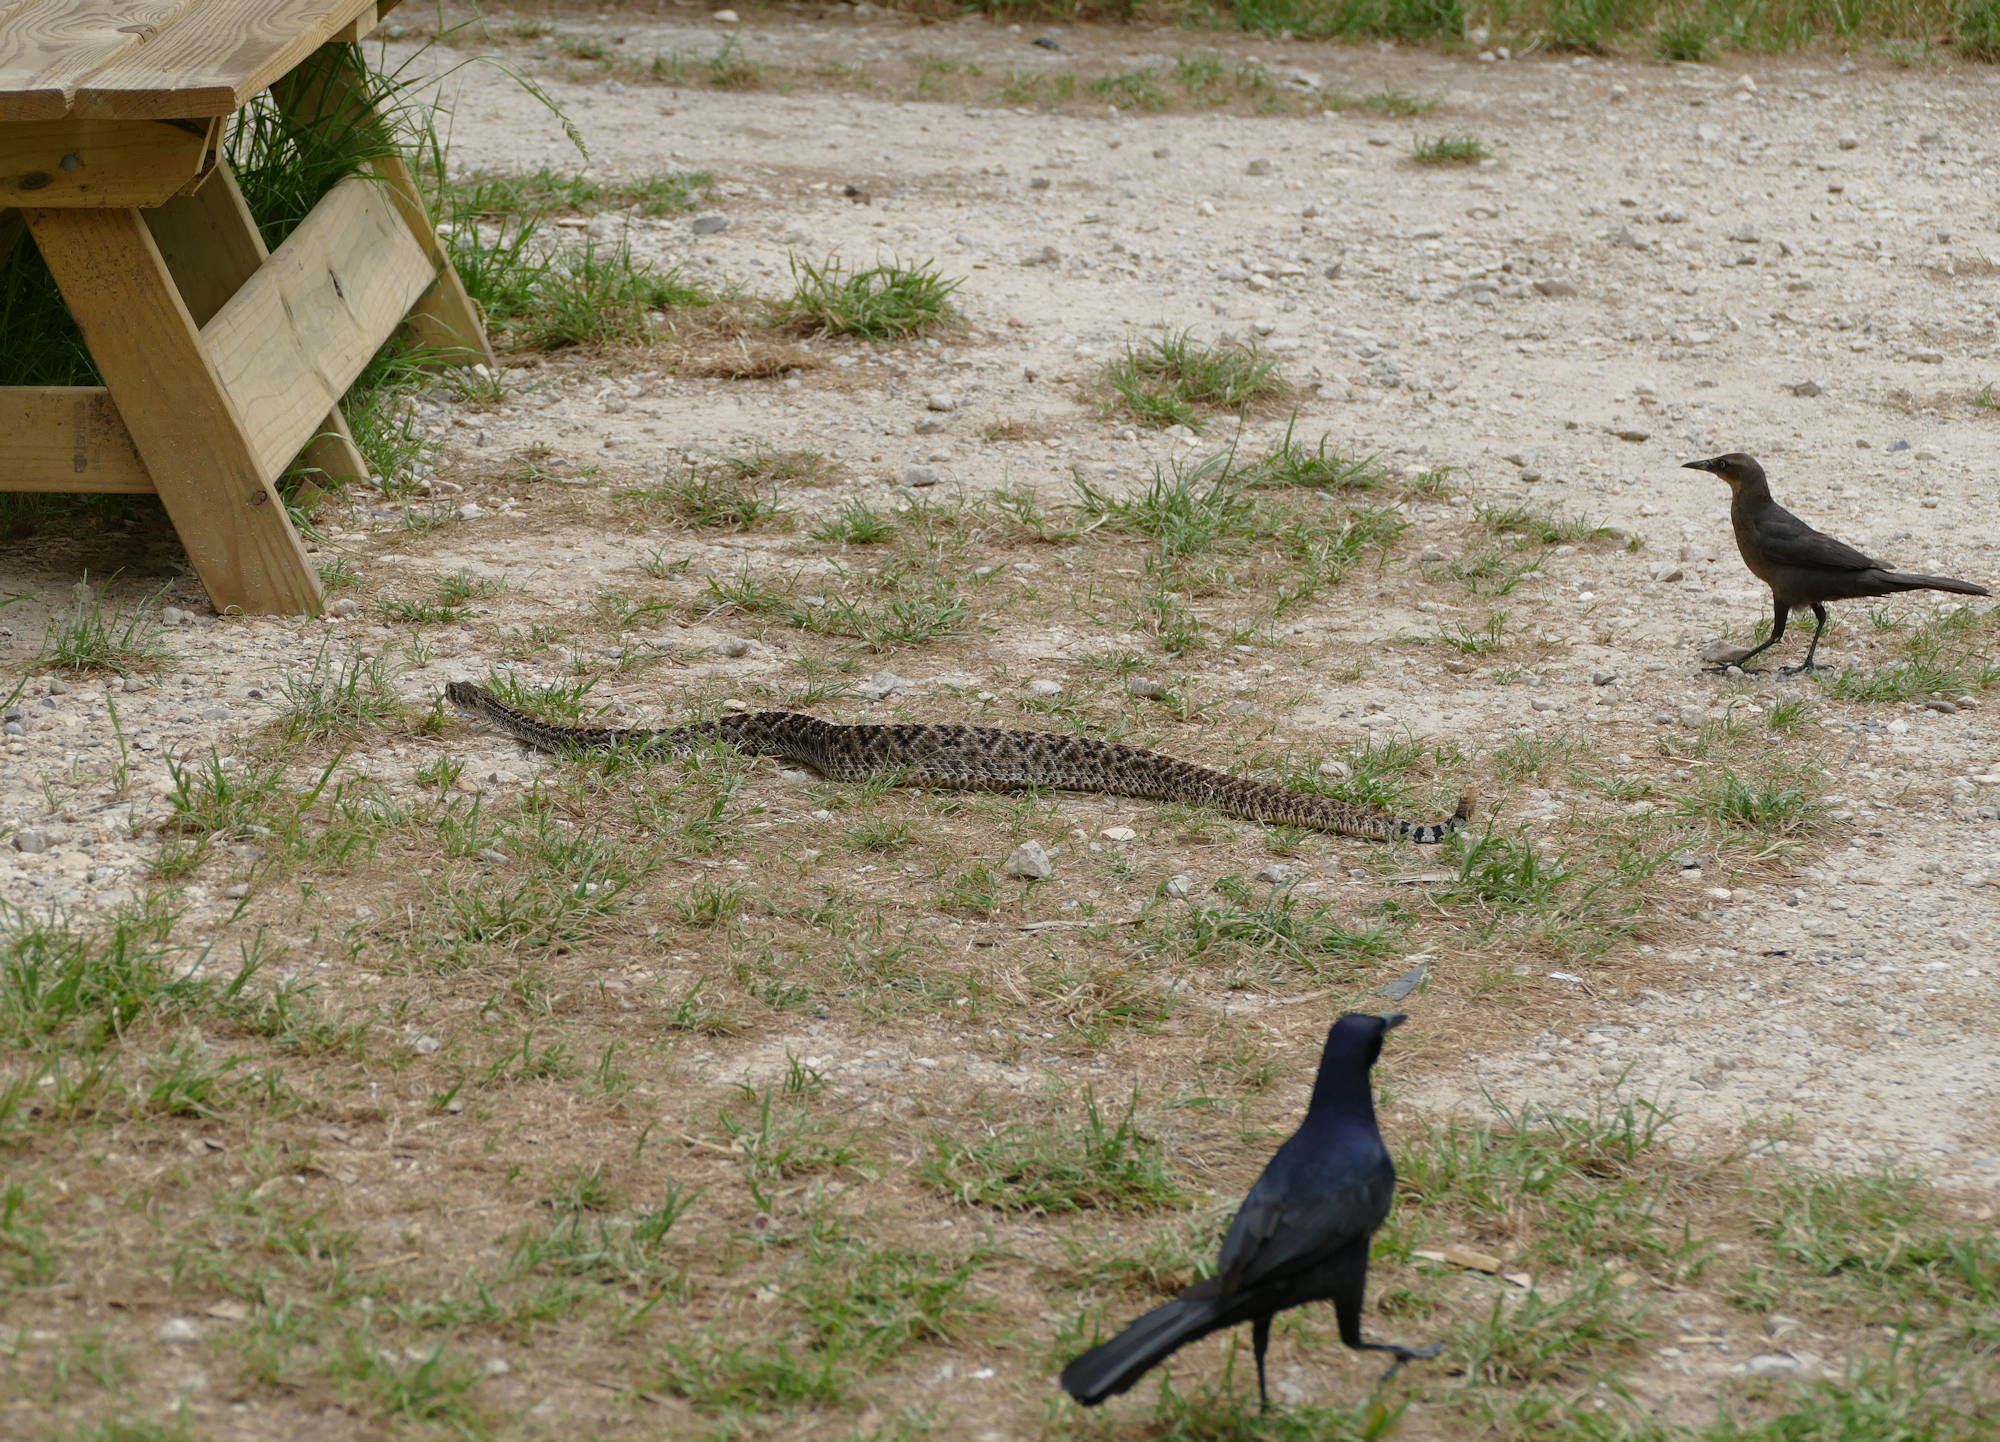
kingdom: Animalia
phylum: Chordata
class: Squamata
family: Viperidae
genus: Crotalus
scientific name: Crotalus atrox
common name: Western diamond-backed rattlesnake
